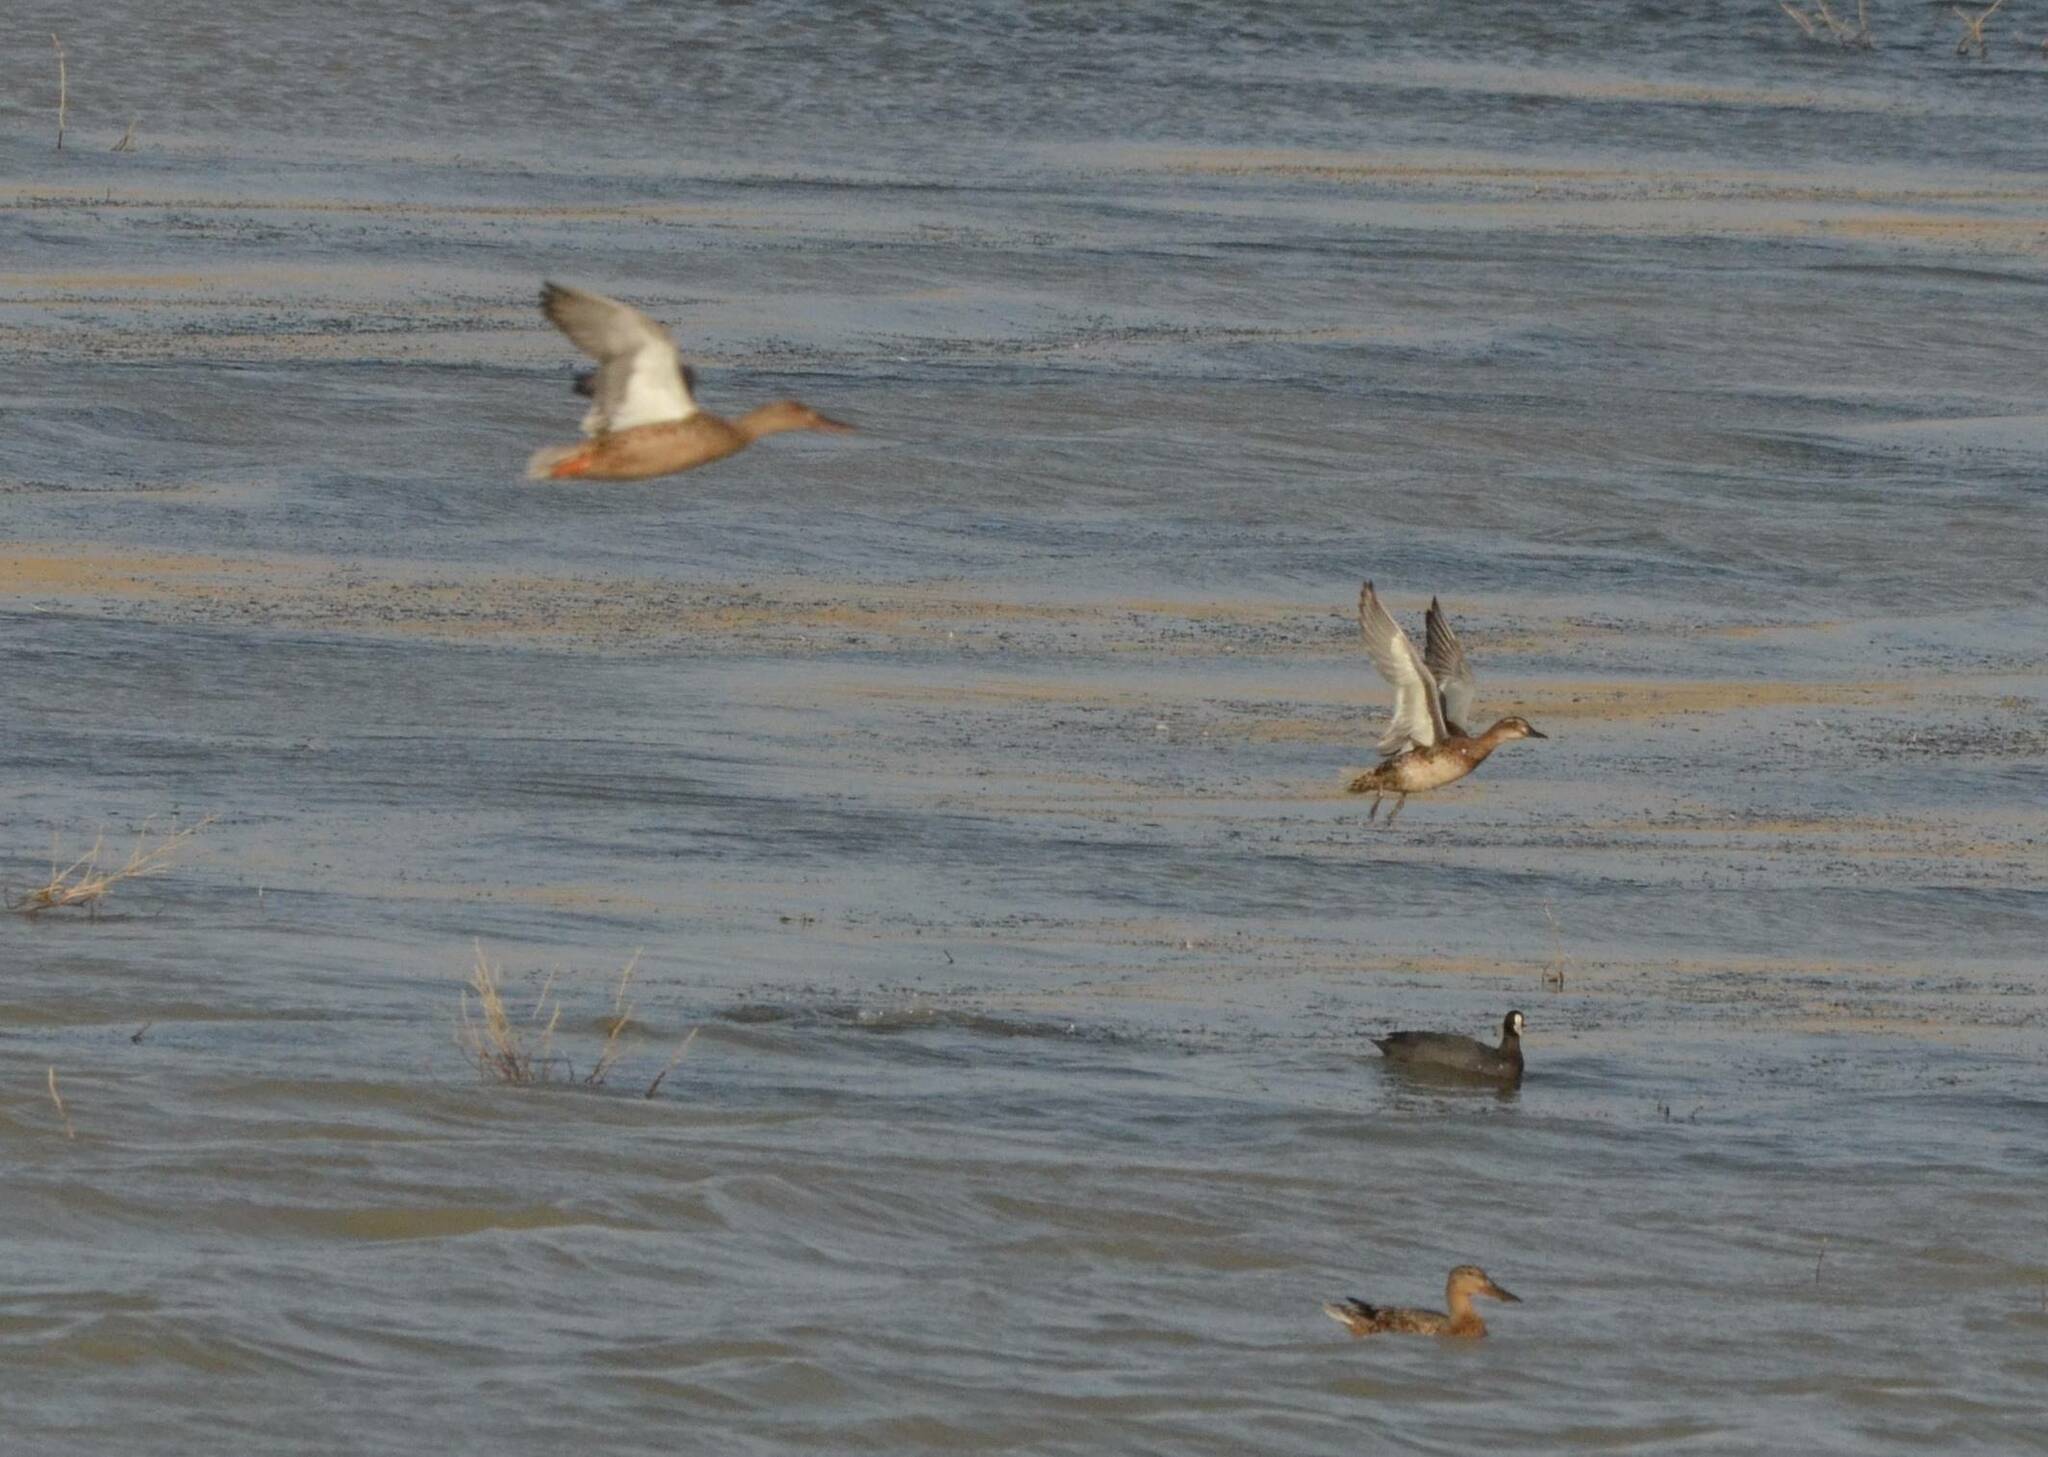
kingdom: Animalia
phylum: Chordata
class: Aves
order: Anseriformes
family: Anatidae
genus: Spatula
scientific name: Spatula clypeata
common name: Northern shoveler
